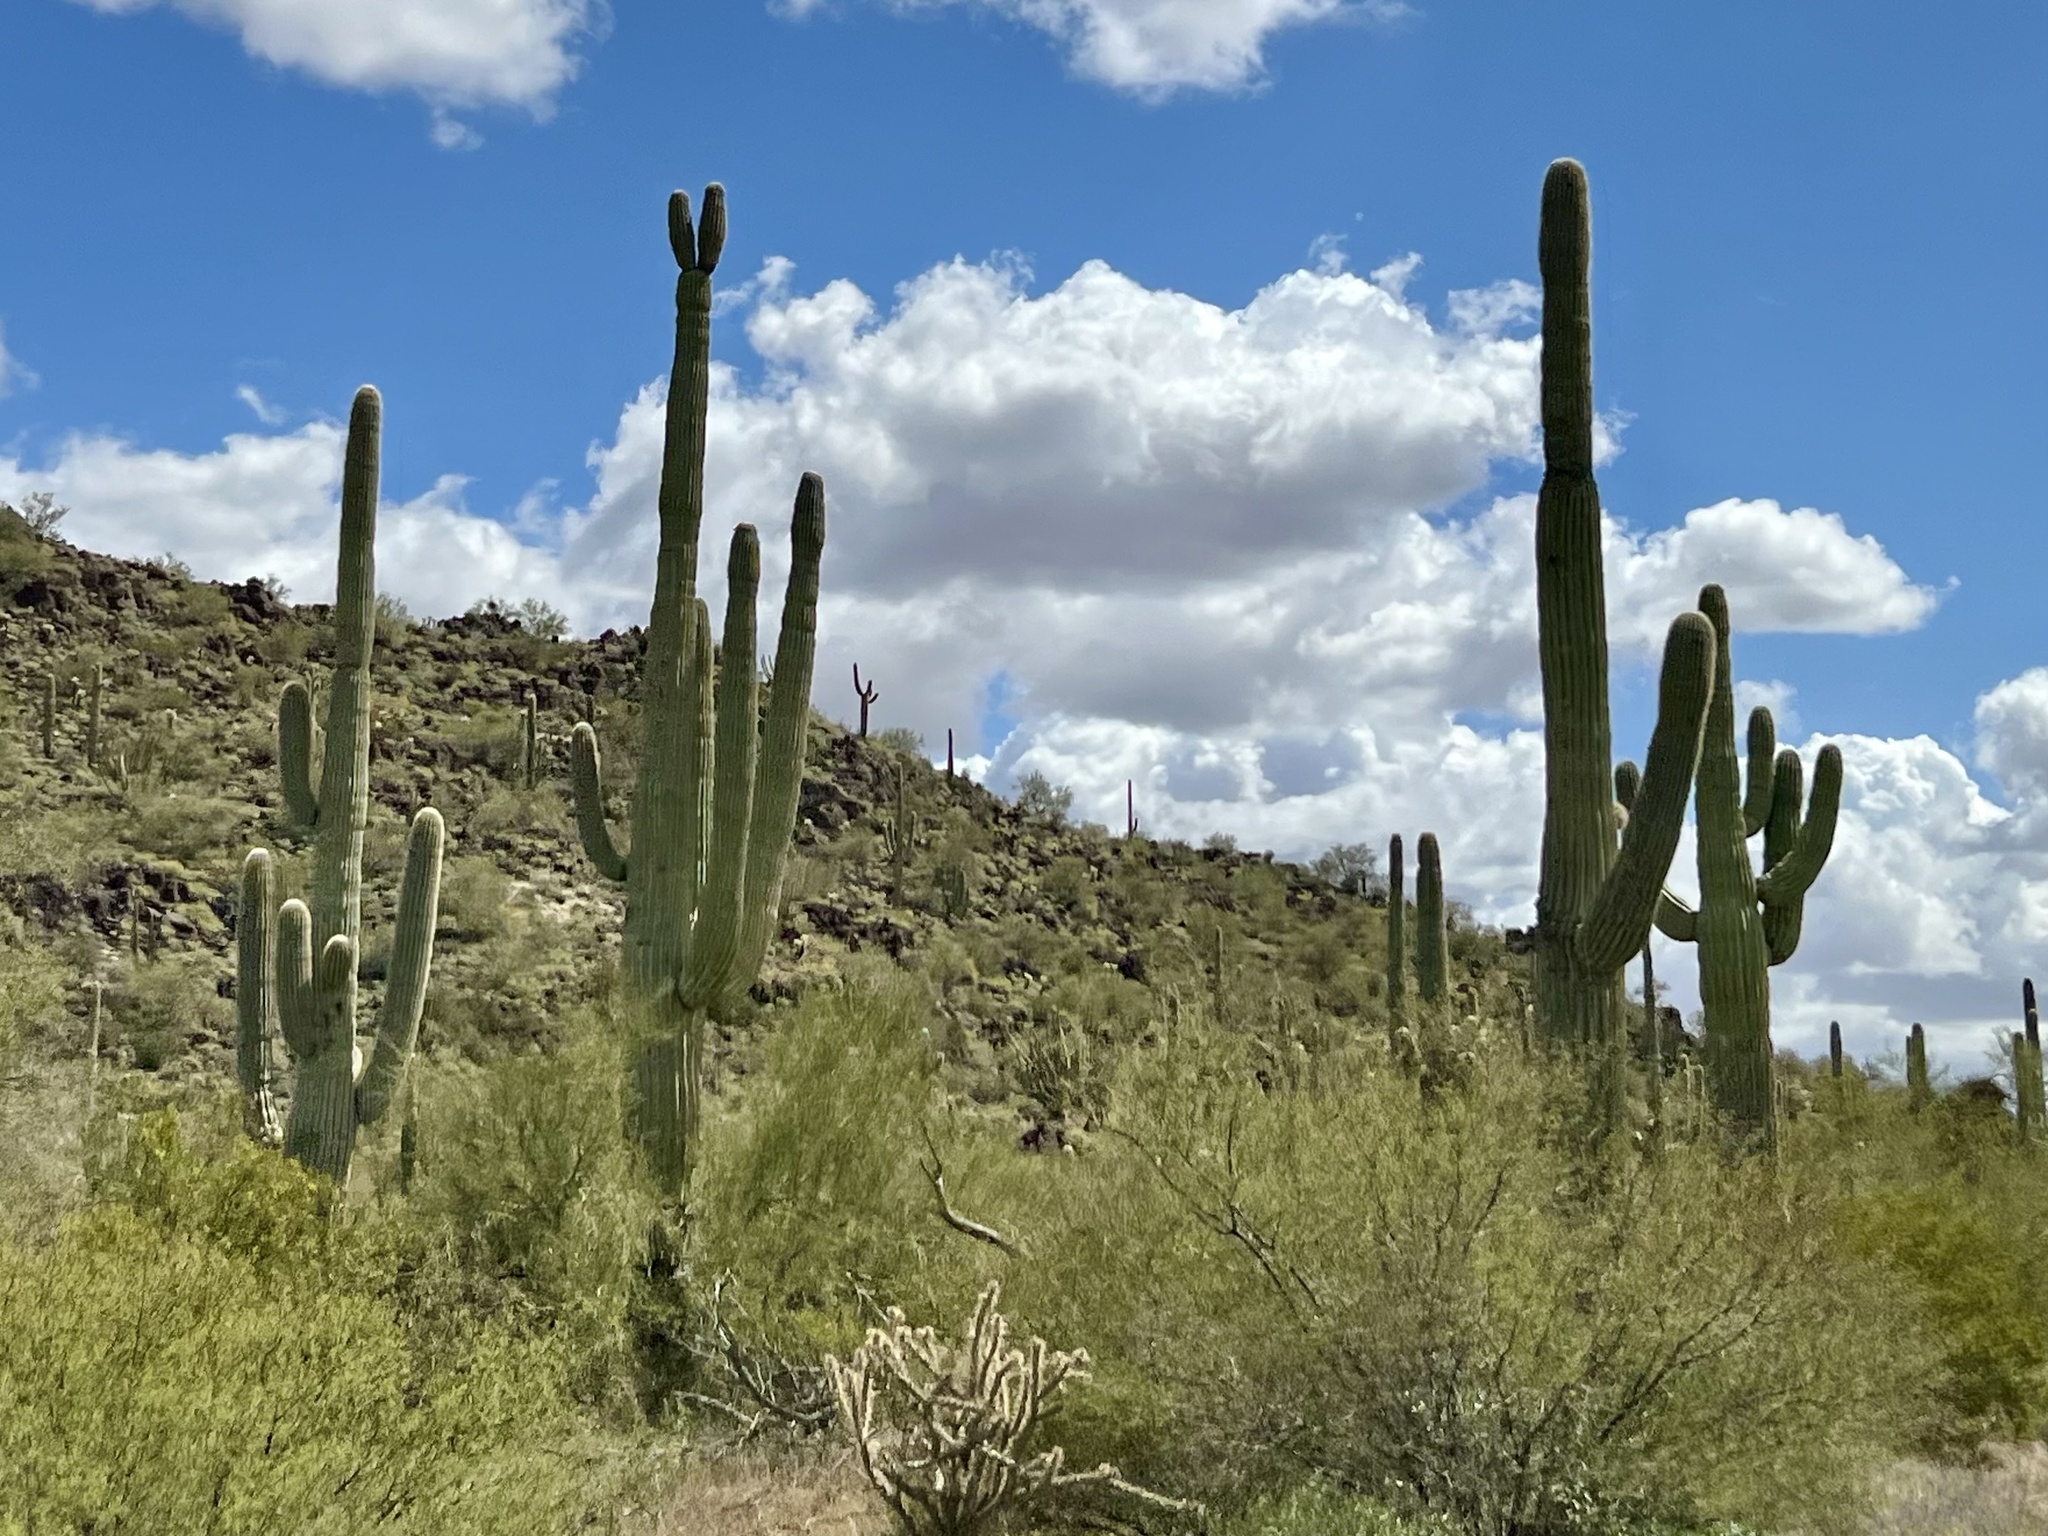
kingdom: Plantae
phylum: Tracheophyta
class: Magnoliopsida
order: Caryophyllales
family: Cactaceae
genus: Carnegiea
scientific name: Carnegiea gigantea
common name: Saguaro
